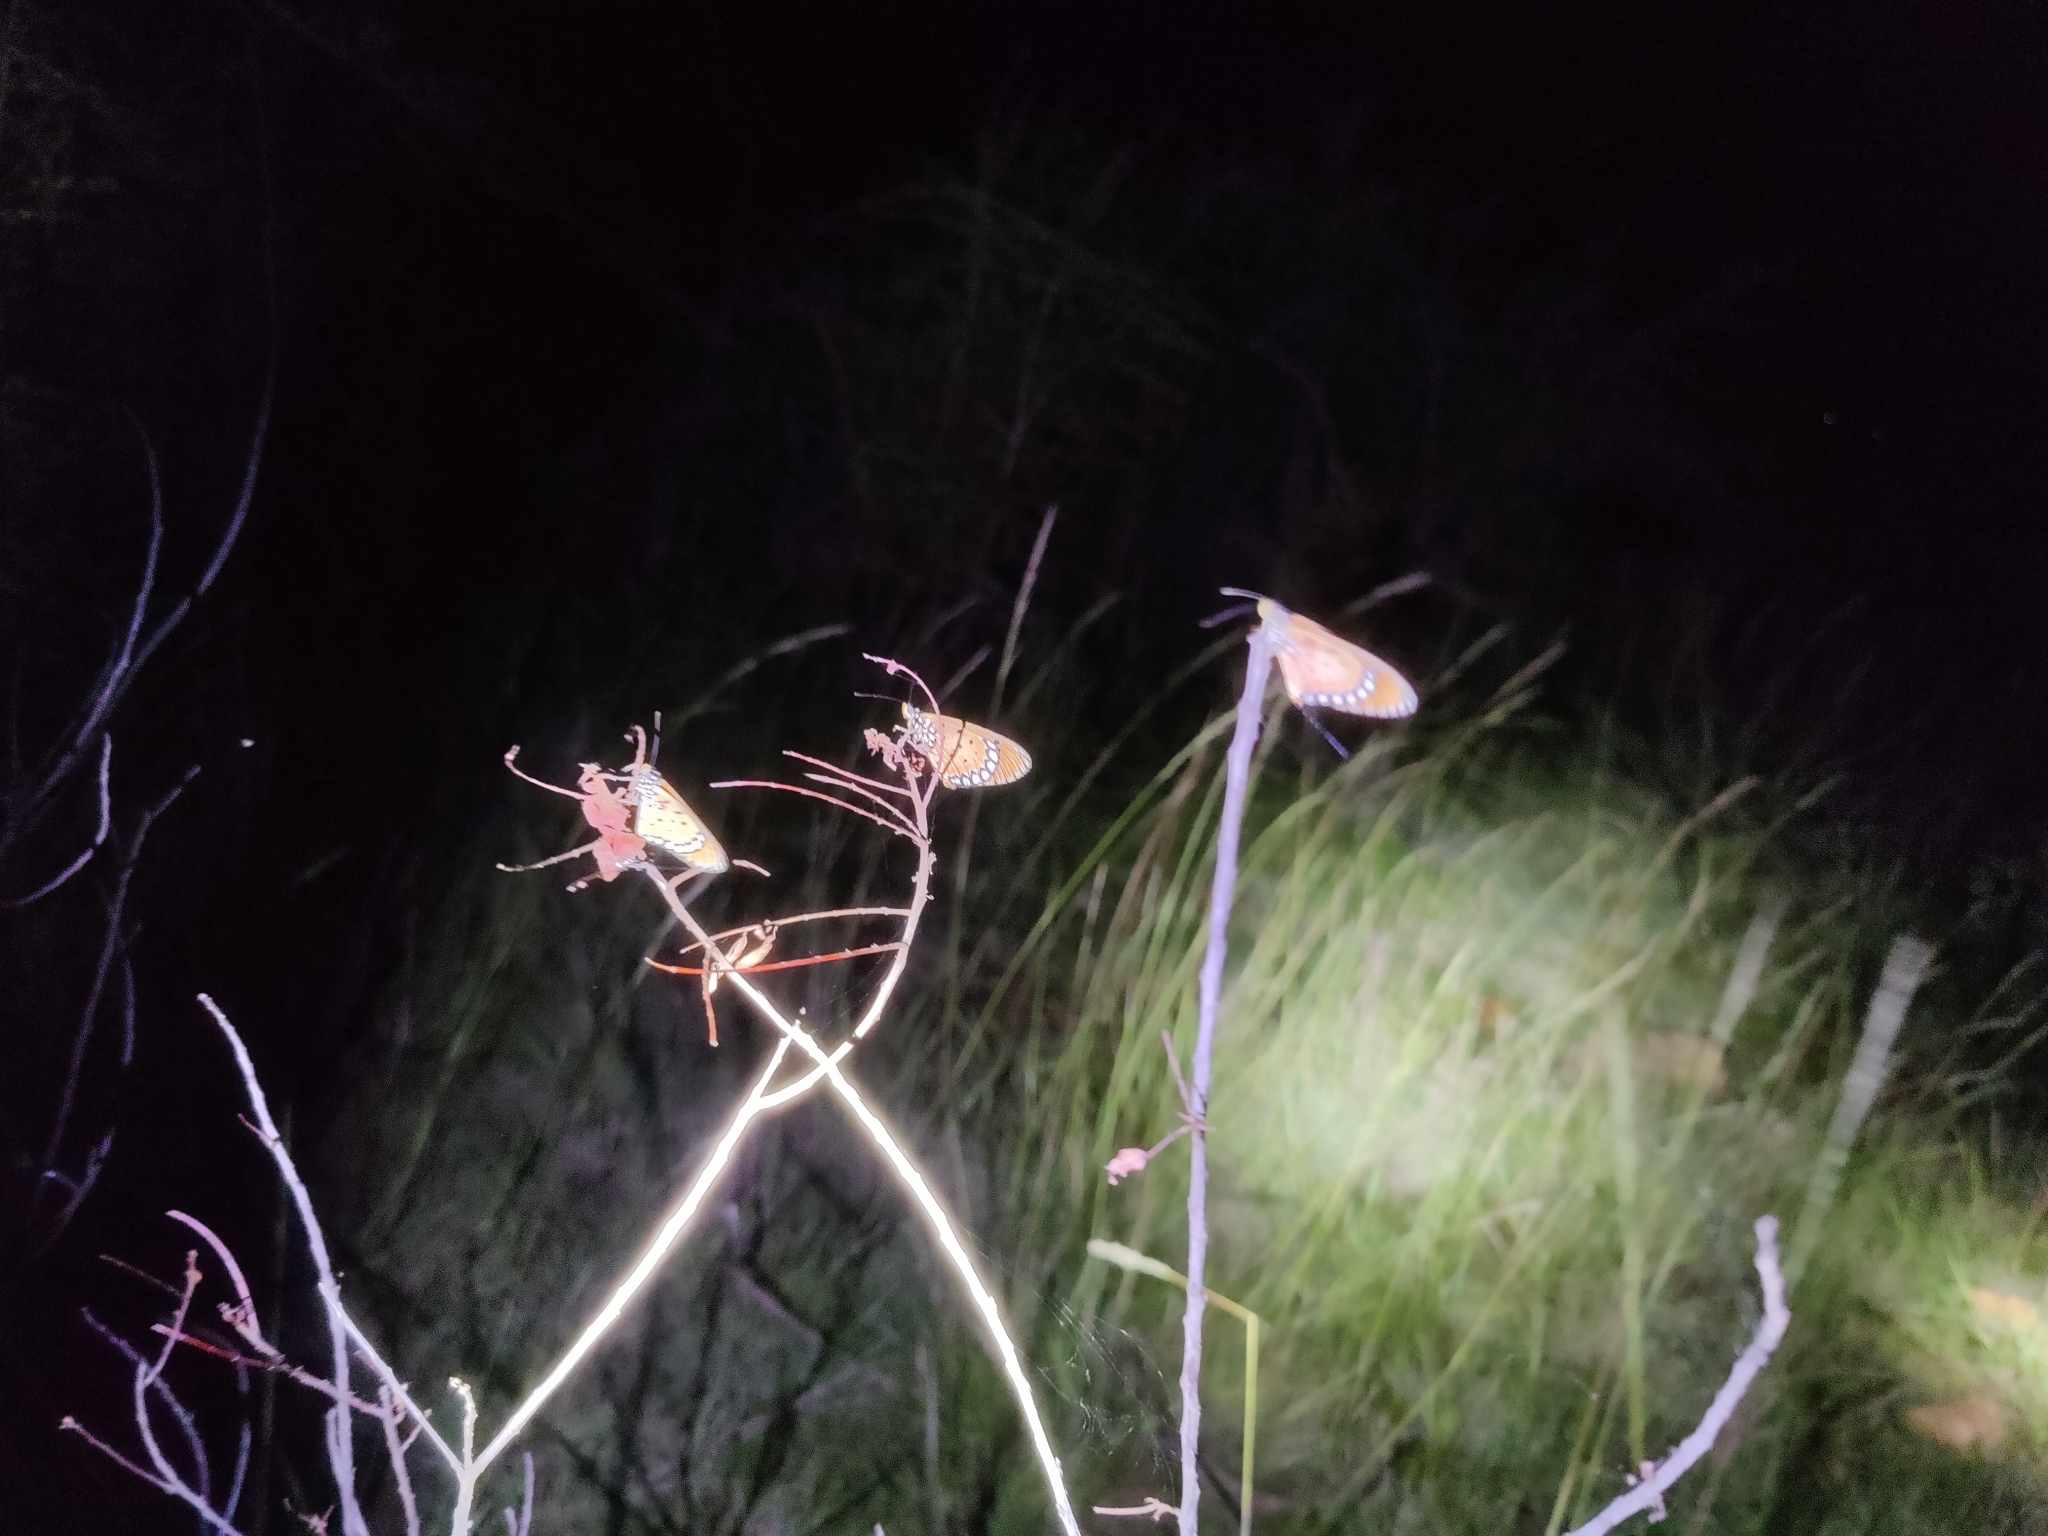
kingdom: Animalia
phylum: Arthropoda
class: Insecta
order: Lepidoptera
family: Nymphalidae
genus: Acraea
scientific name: Acraea terpsicore
